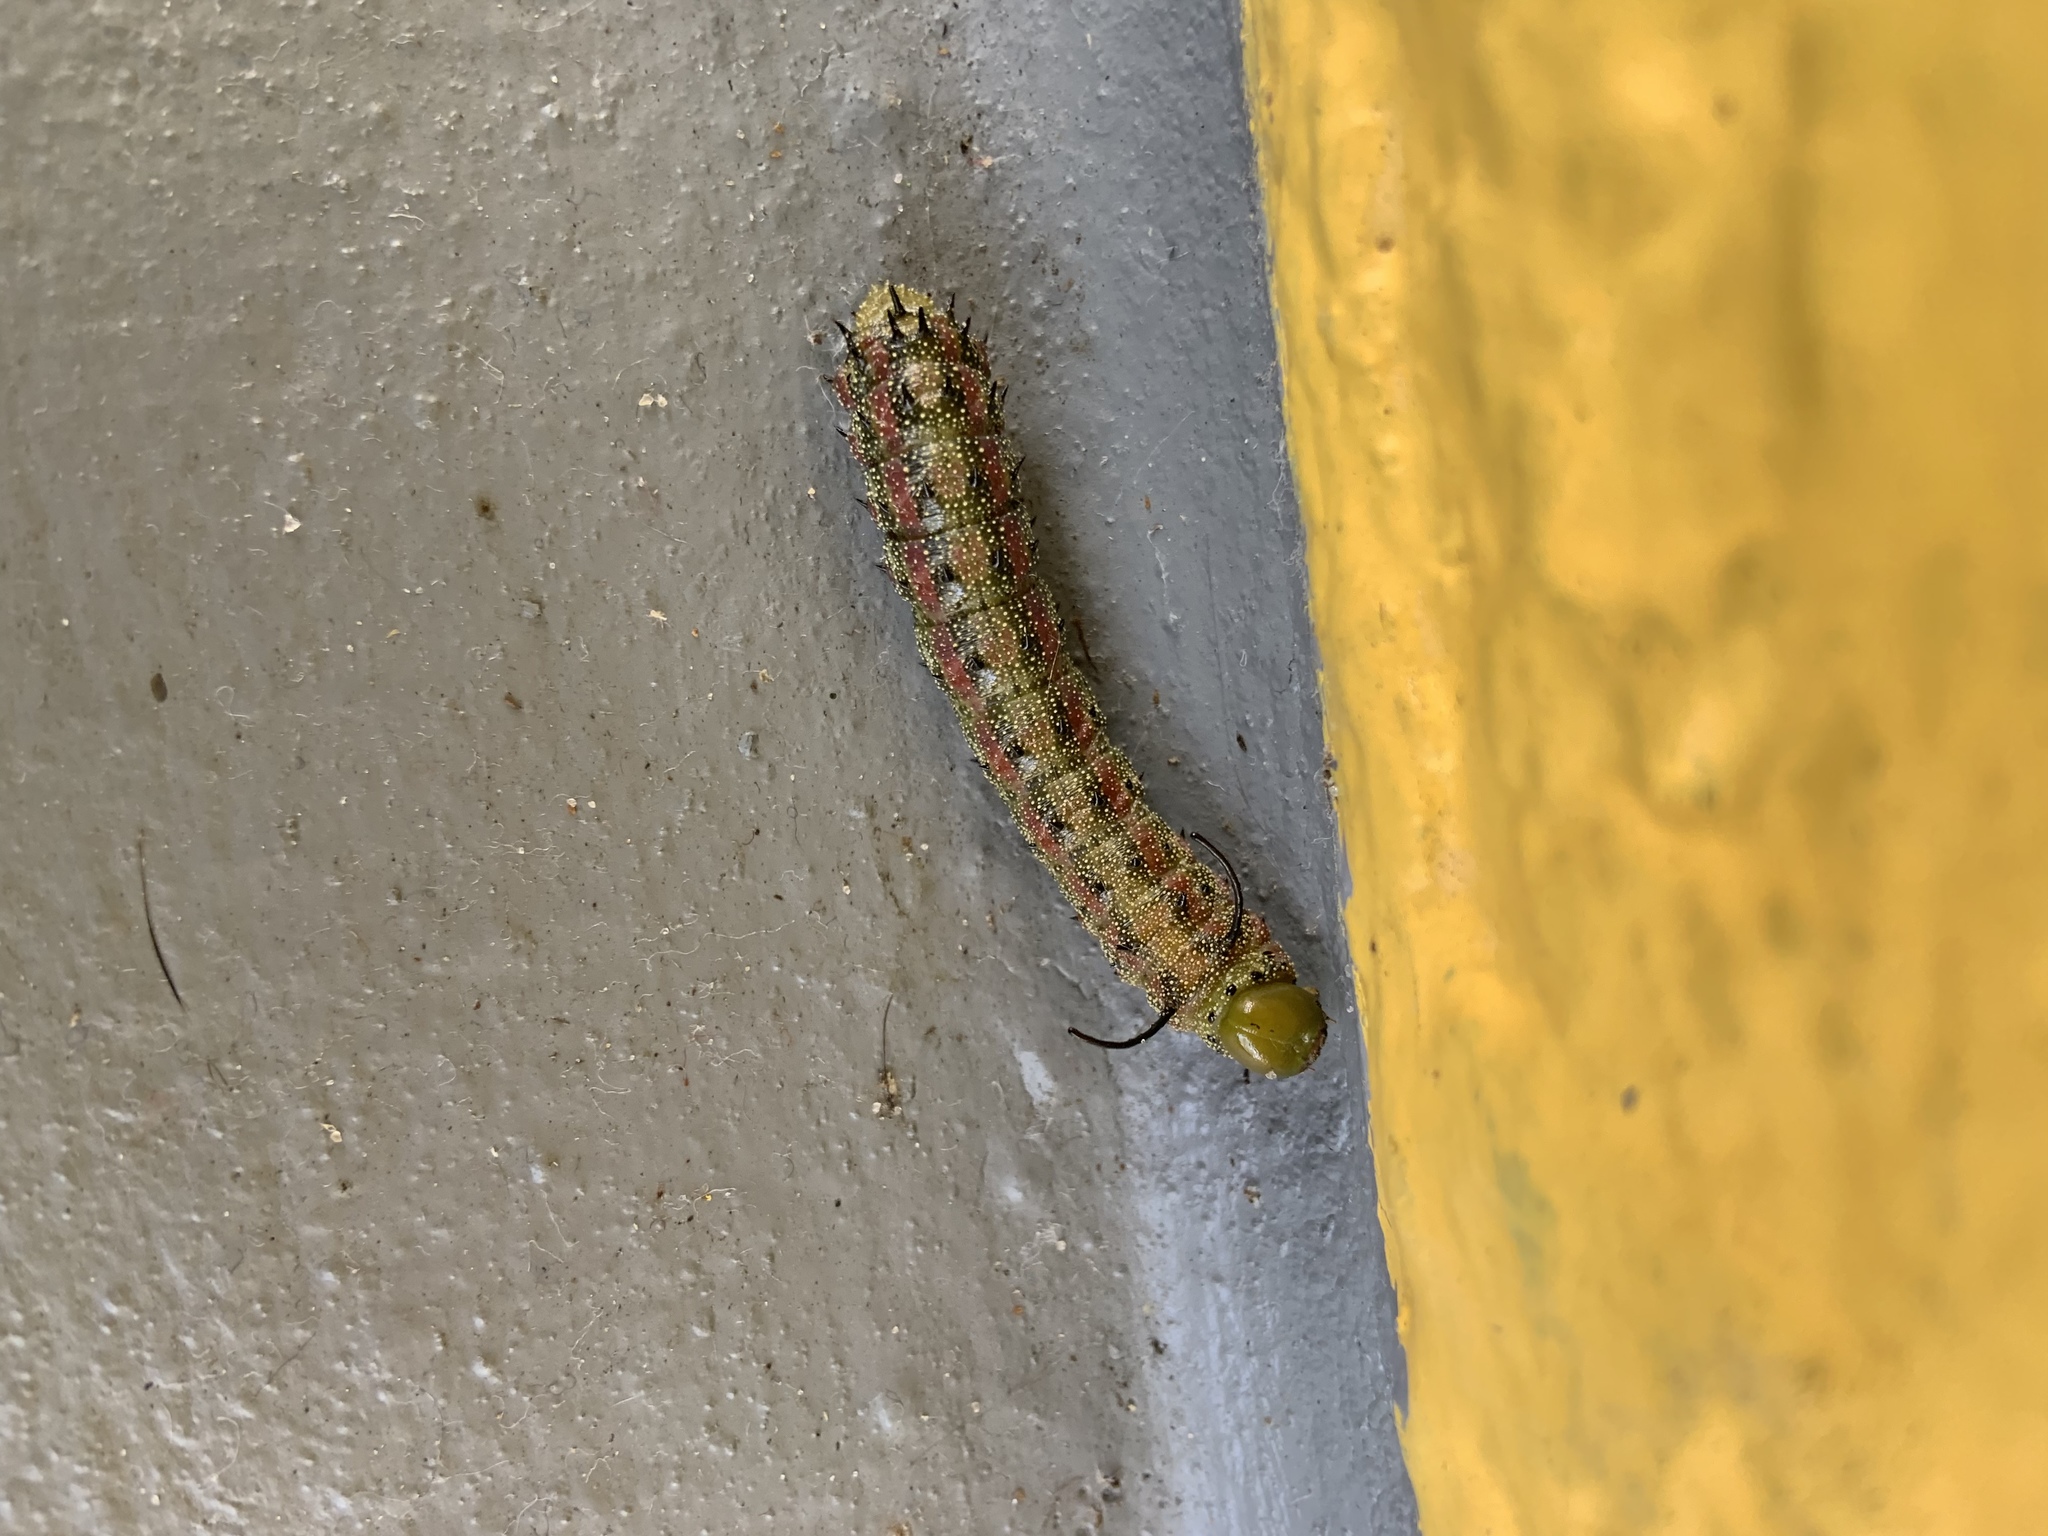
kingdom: Animalia
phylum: Arthropoda
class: Insecta
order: Lepidoptera
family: Saturniidae
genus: Anisota
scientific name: Anisota virginiensis
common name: Pink striped oakworm moth
